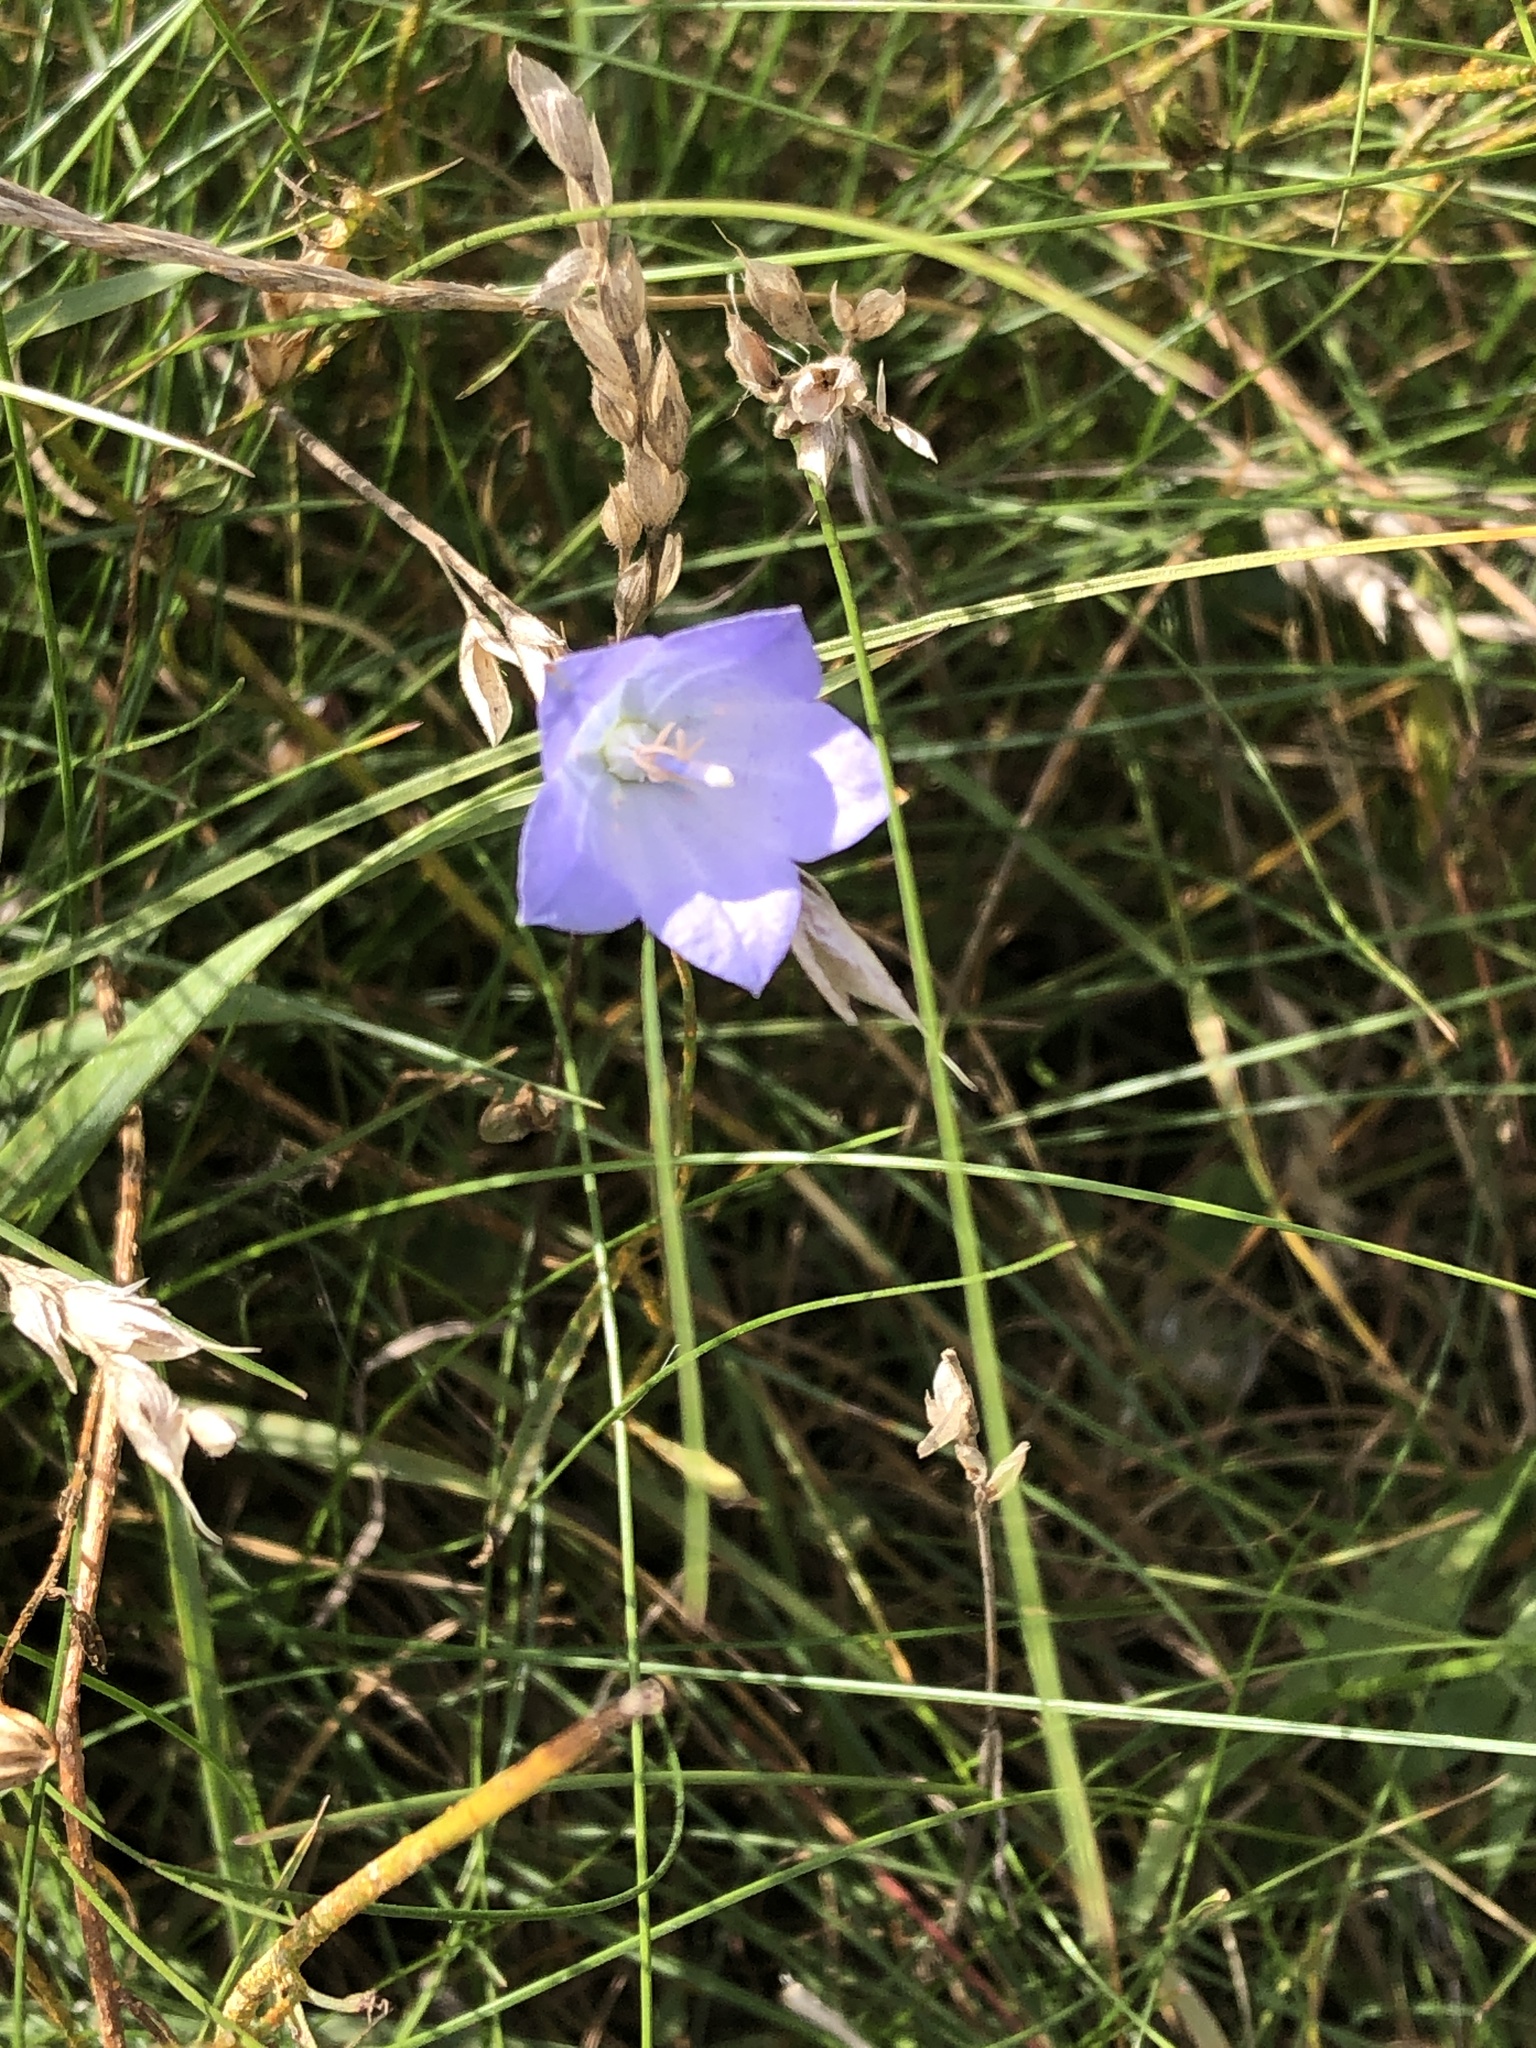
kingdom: Plantae
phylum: Tracheophyta
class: Magnoliopsida
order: Asterales
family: Campanulaceae
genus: Campanula
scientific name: Campanula rotundifolia
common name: Harebell
